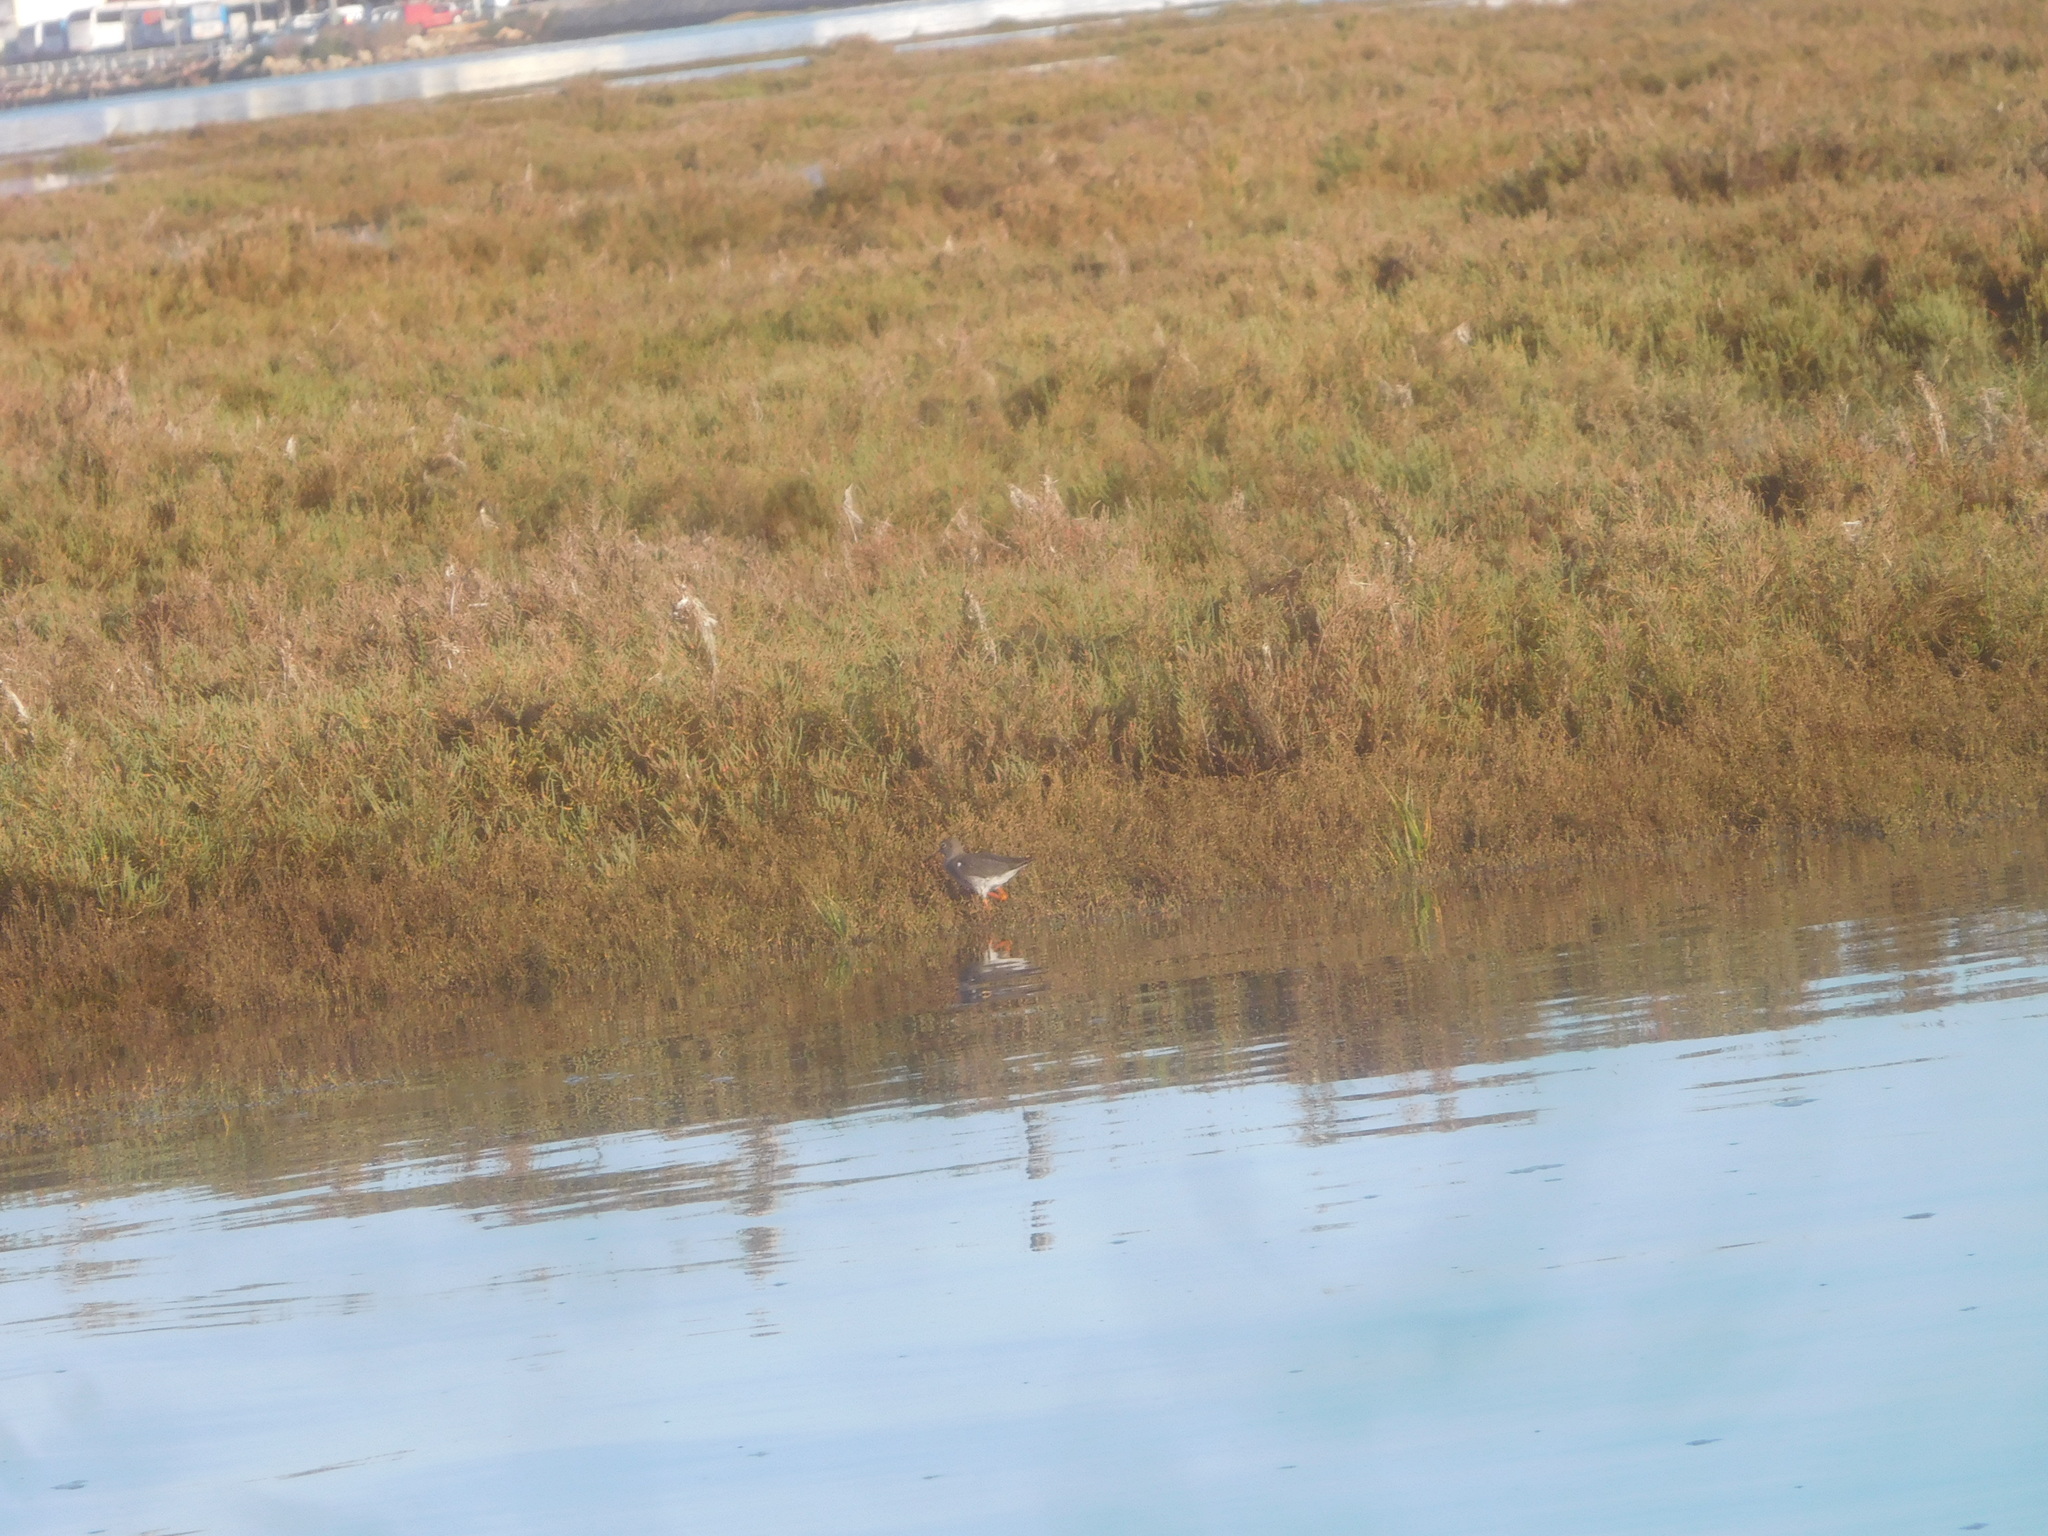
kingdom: Animalia
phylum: Chordata
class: Aves
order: Charadriiformes
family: Scolopacidae
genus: Tringa
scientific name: Tringa totanus
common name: Common redshank
